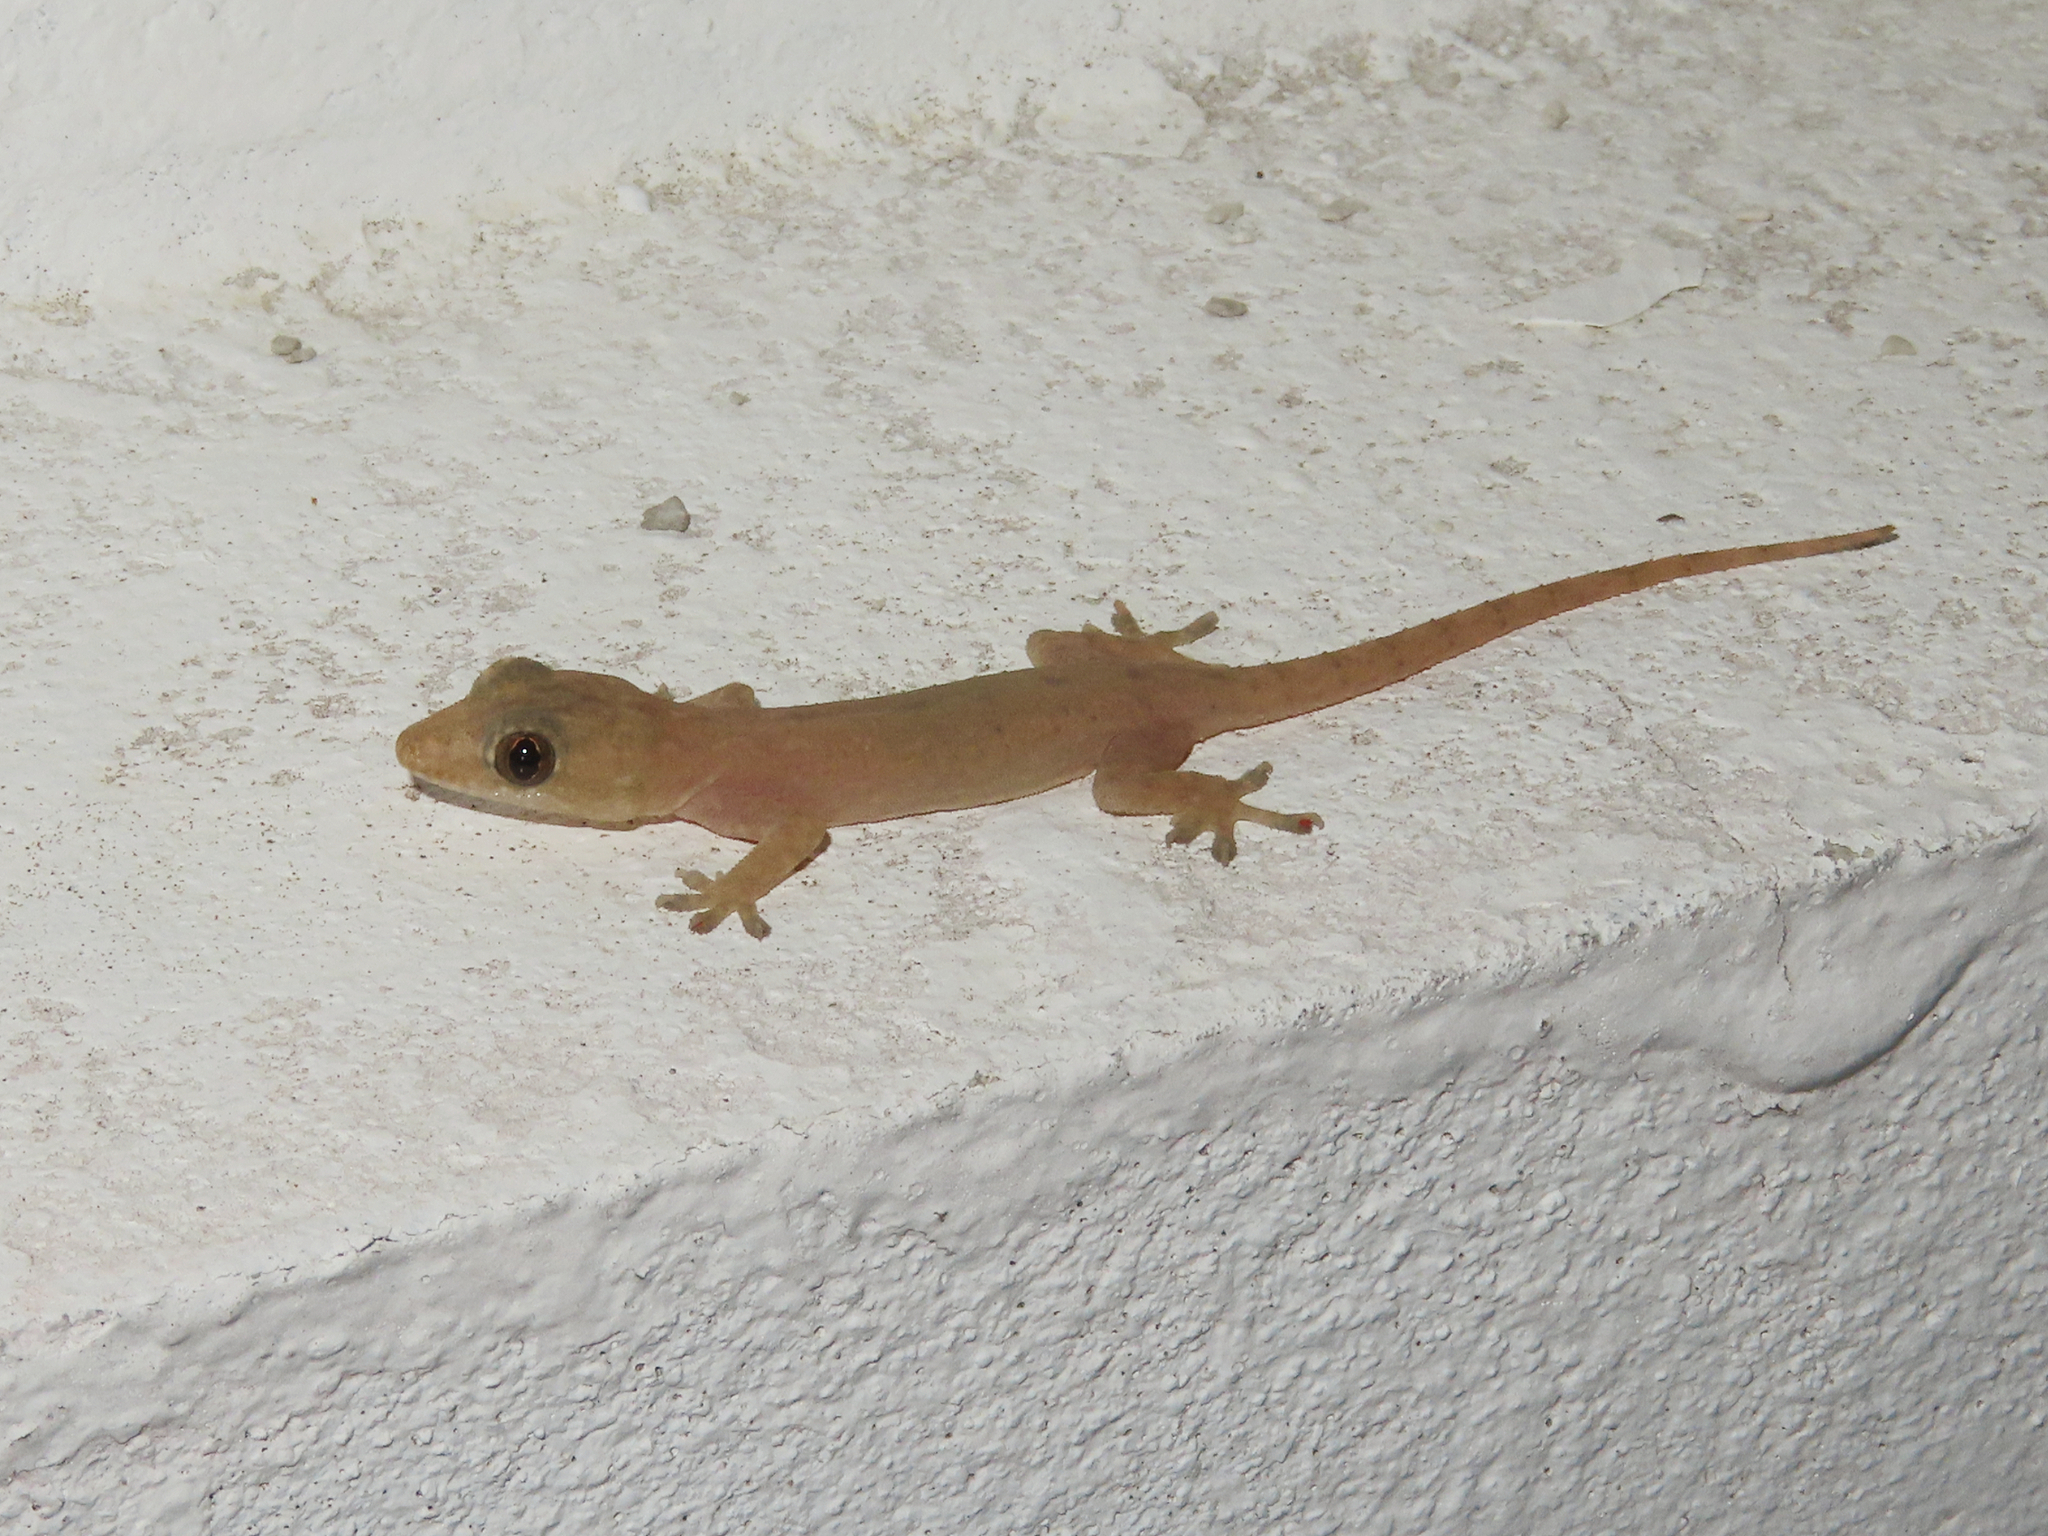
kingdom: Animalia
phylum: Chordata
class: Squamata
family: Gekkonidae
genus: Hemidactylus
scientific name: Hemidactylus frenatus
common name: Common house gecko
